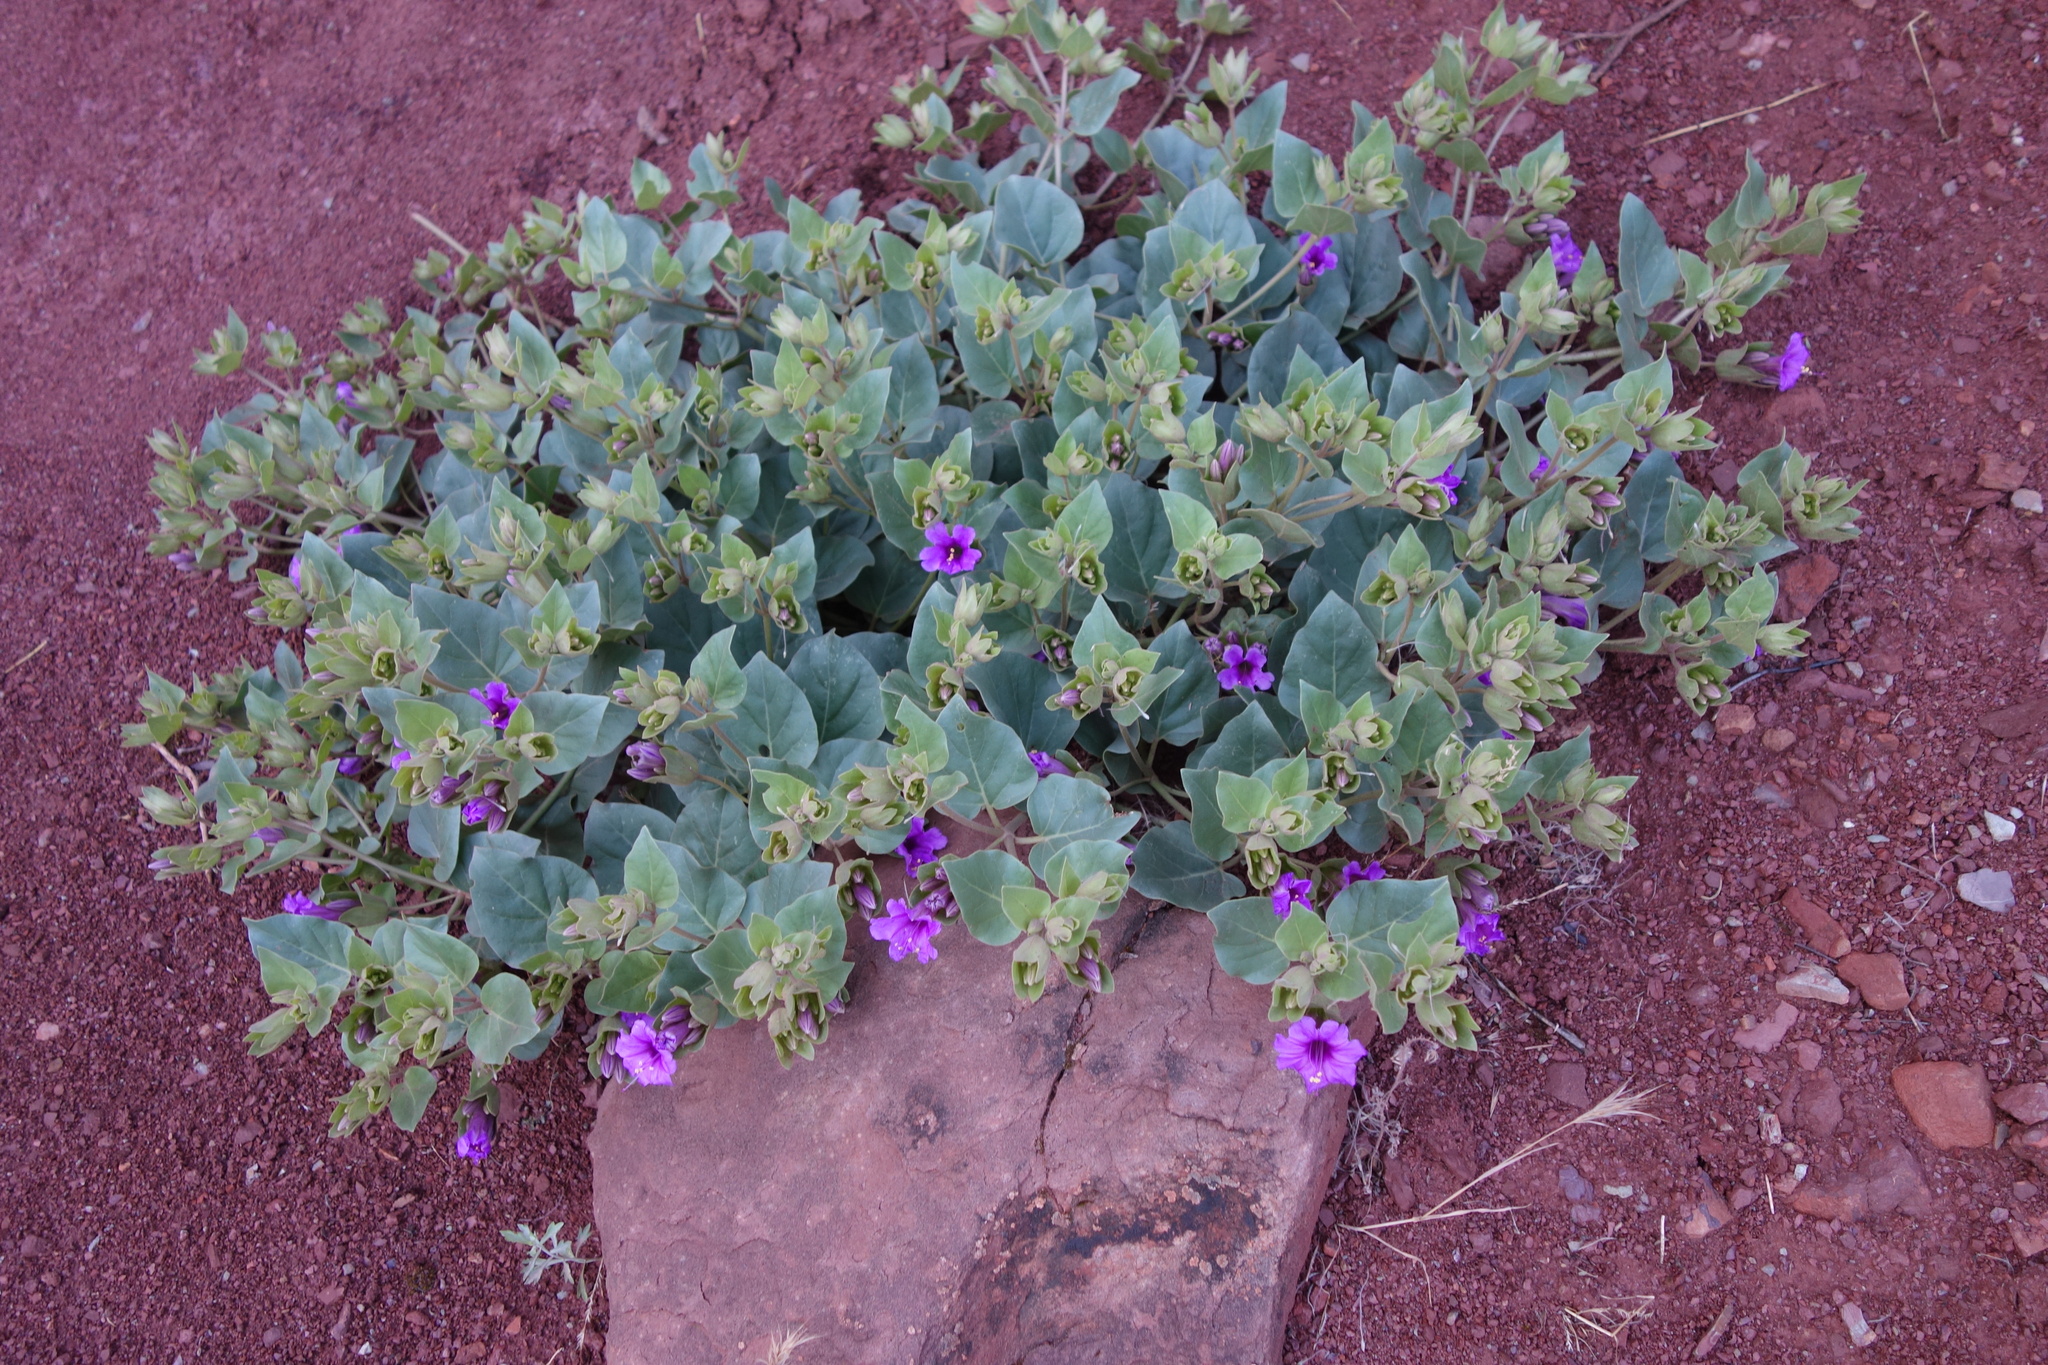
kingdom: Plantae
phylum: Tracheophyta
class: Magnoliopsida
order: Caryophyllales
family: Nyctaginaceae
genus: Mirabilis
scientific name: Mirabilis multiflora
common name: Froebel's four-o'clock
